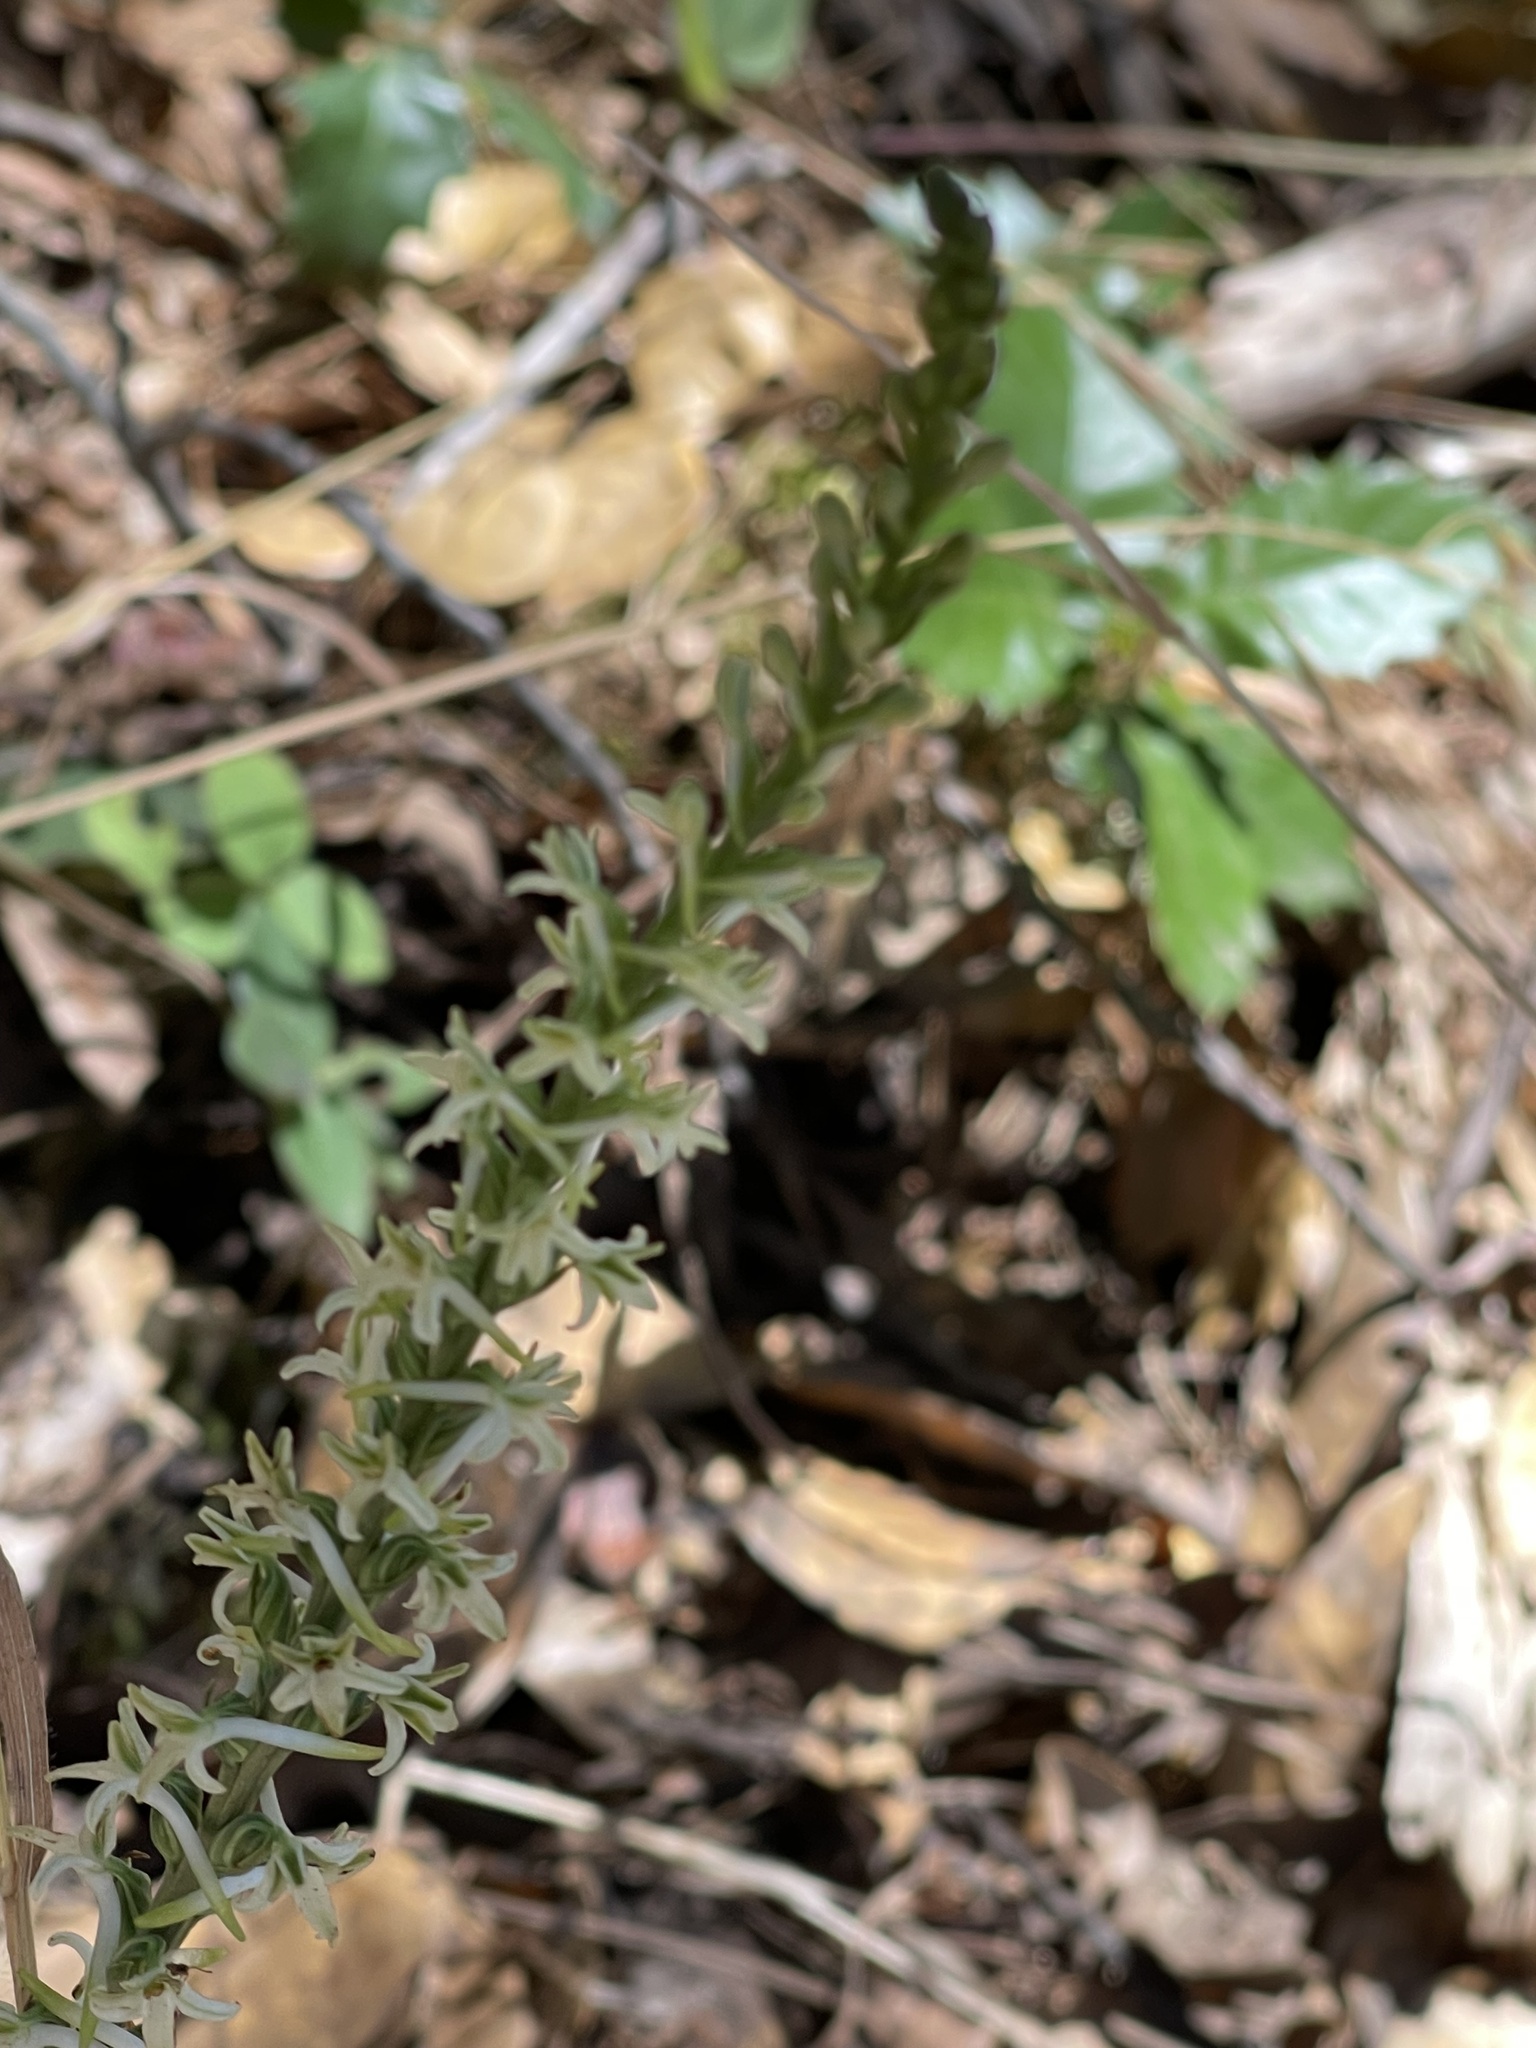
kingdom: Plantae
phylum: Tracheophyta
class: Liliopsida
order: Asparagales
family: Orchidaceae
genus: Platanthera
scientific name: Platanthera transversa
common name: Royal rein orchid
